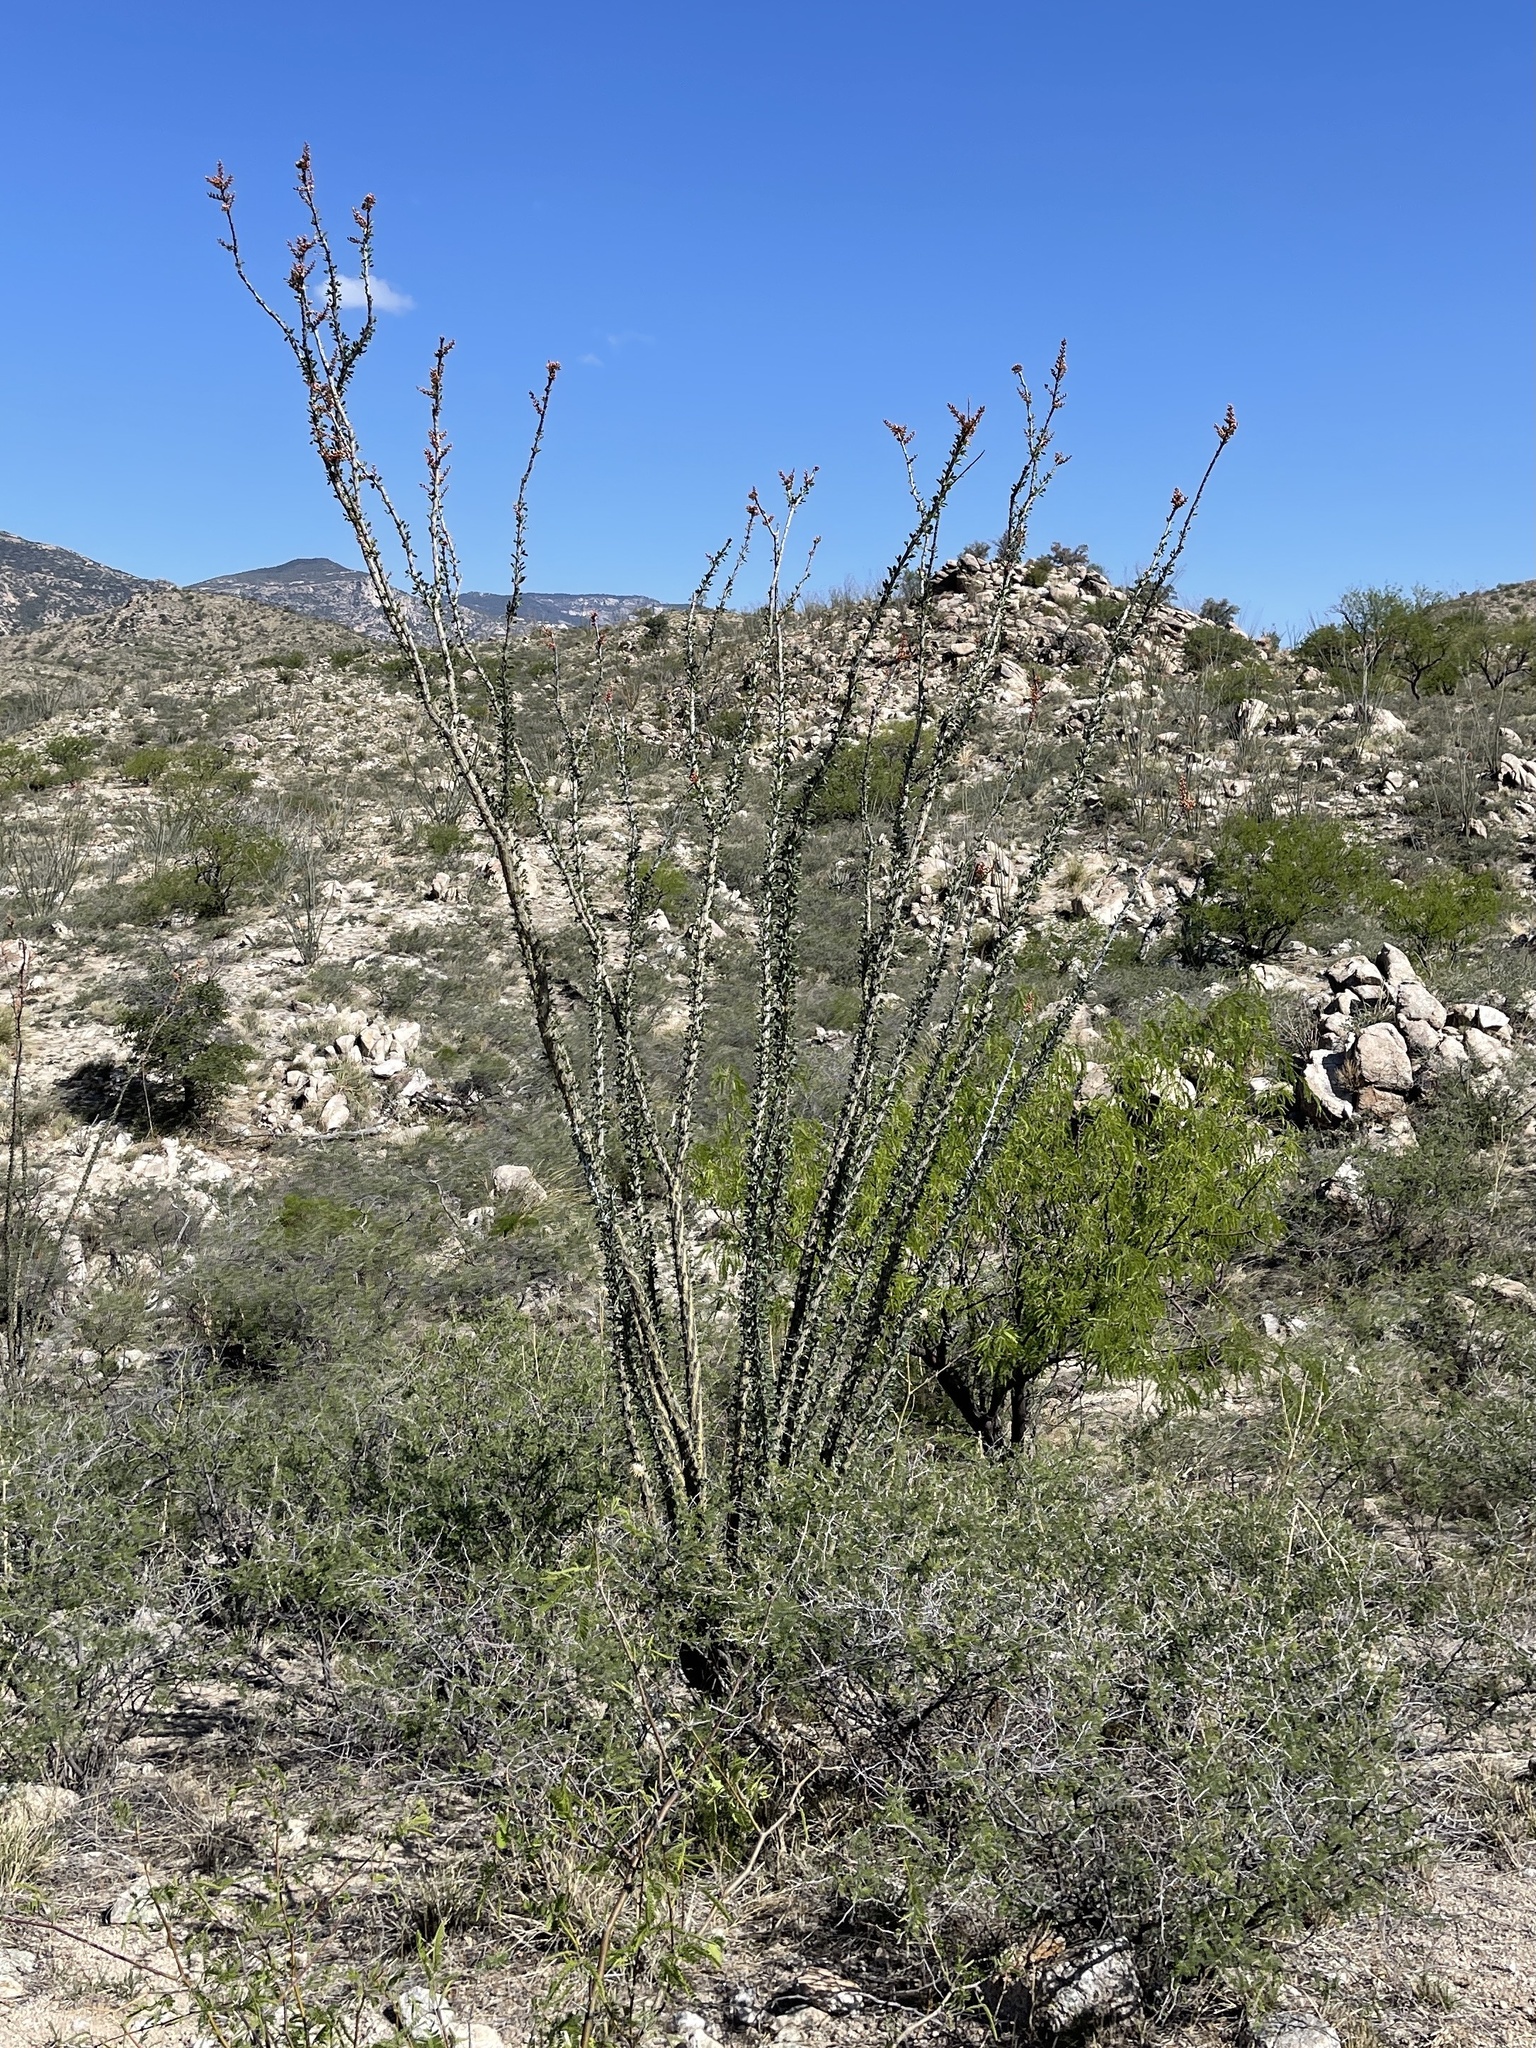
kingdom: Plantae
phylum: Tracheophyta
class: Magnoliopsida
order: Ericales
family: Fouquieriaceae
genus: Fouquieria
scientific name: Fouquieria splendens
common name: Vine-cactus
